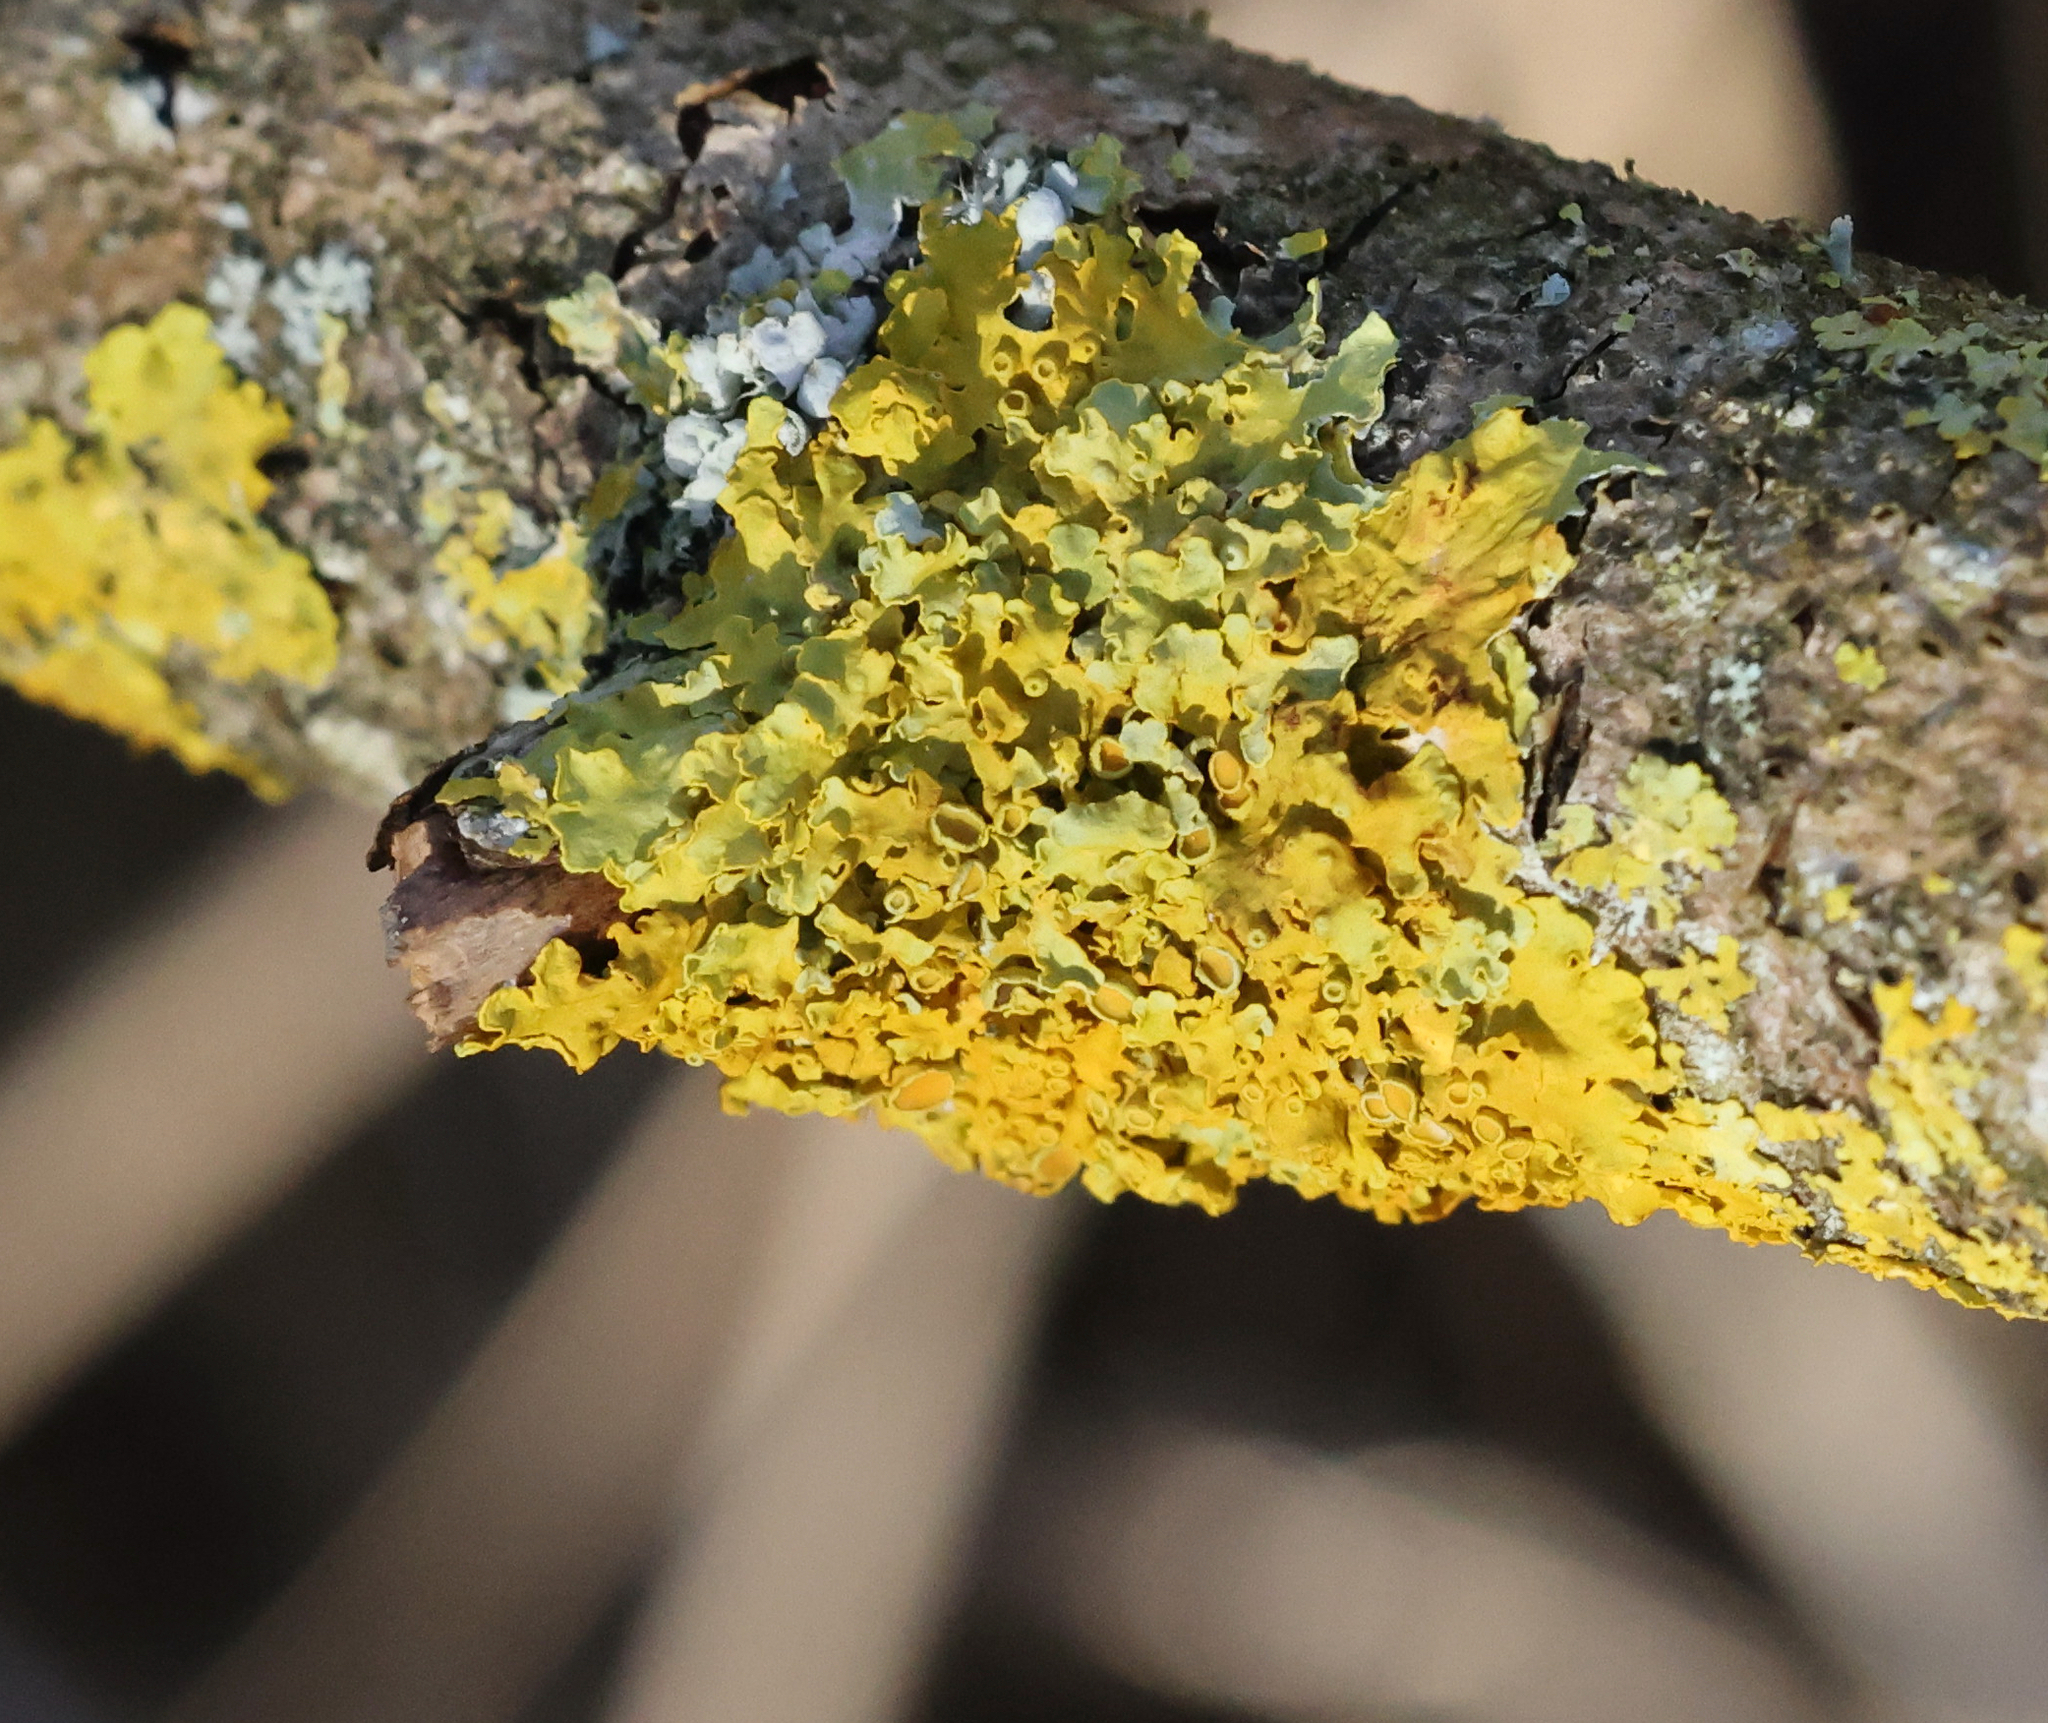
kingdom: Fungi
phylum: Ascomycota
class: Lecanoromycetes
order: Teloschistales
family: Teloschistaceae
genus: Xanthoria
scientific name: Xanthoria parietina
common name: Common orange lichen
